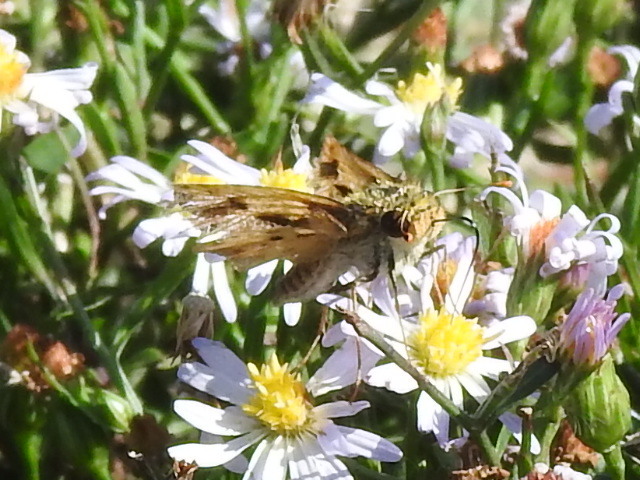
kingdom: Animalia
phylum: Arthropoda
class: Insecta
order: Lepidoptera
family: Hesperiidae
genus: Hylephila
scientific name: Hylephila phyleus
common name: Fiery skipper
